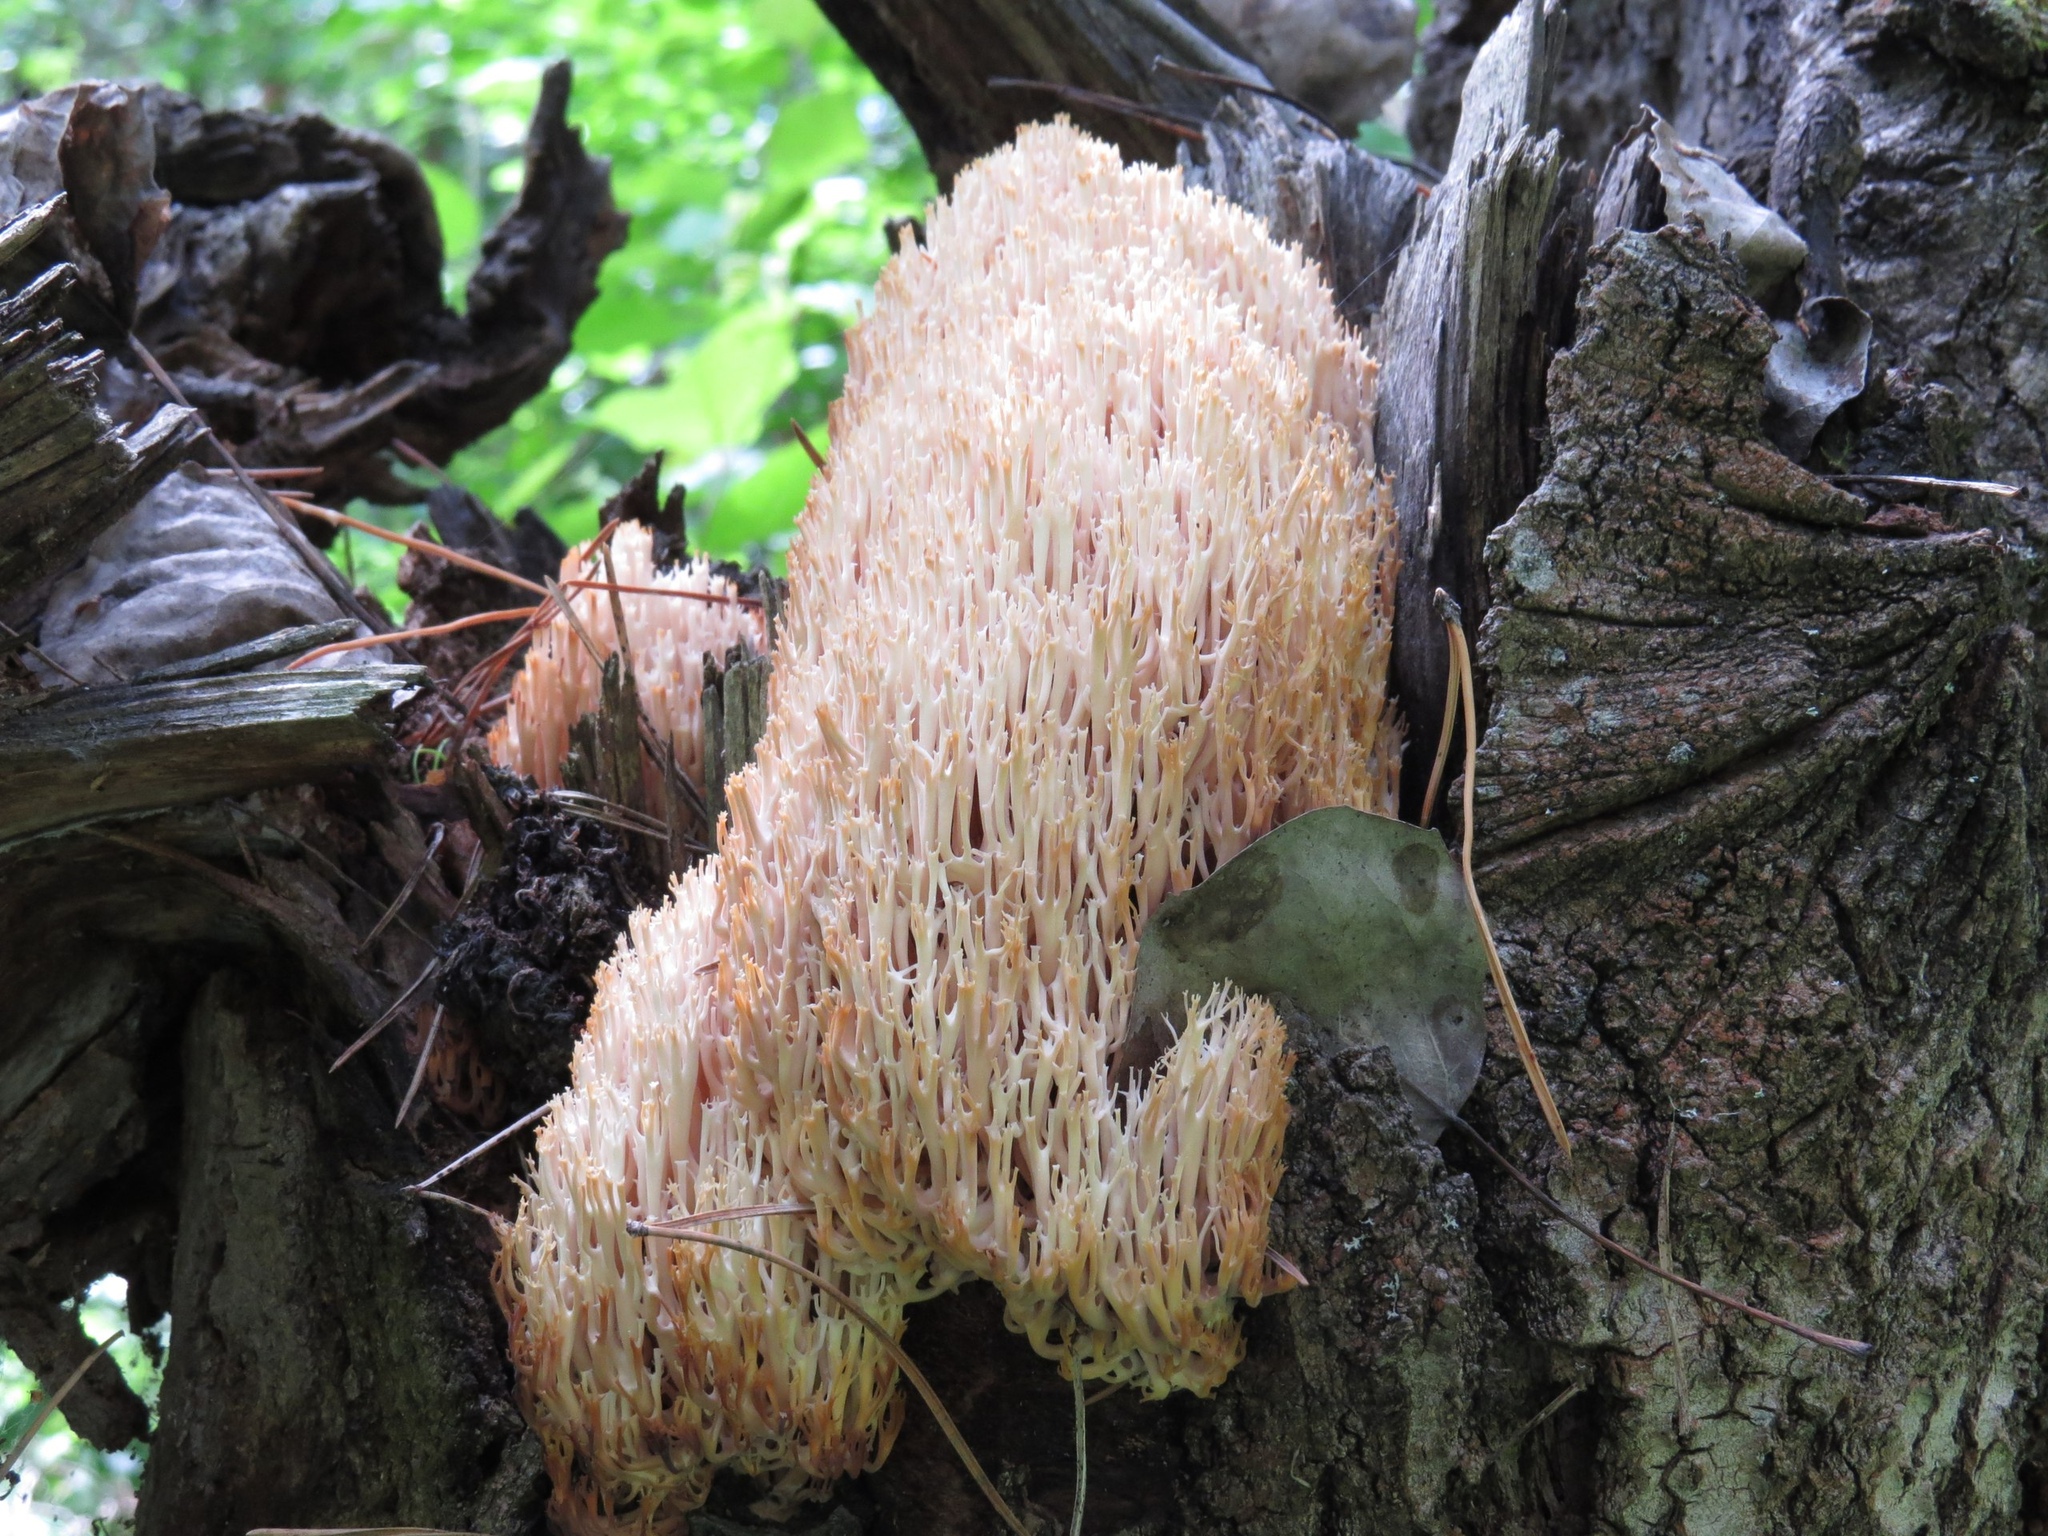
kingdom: Fungi
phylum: Basidiomycota
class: Agaricomycetes
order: Russulales
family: Auriscalpiaceae
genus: Artomyces
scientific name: Artomyces pyxidatus
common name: Crown-tipped coral fungus
